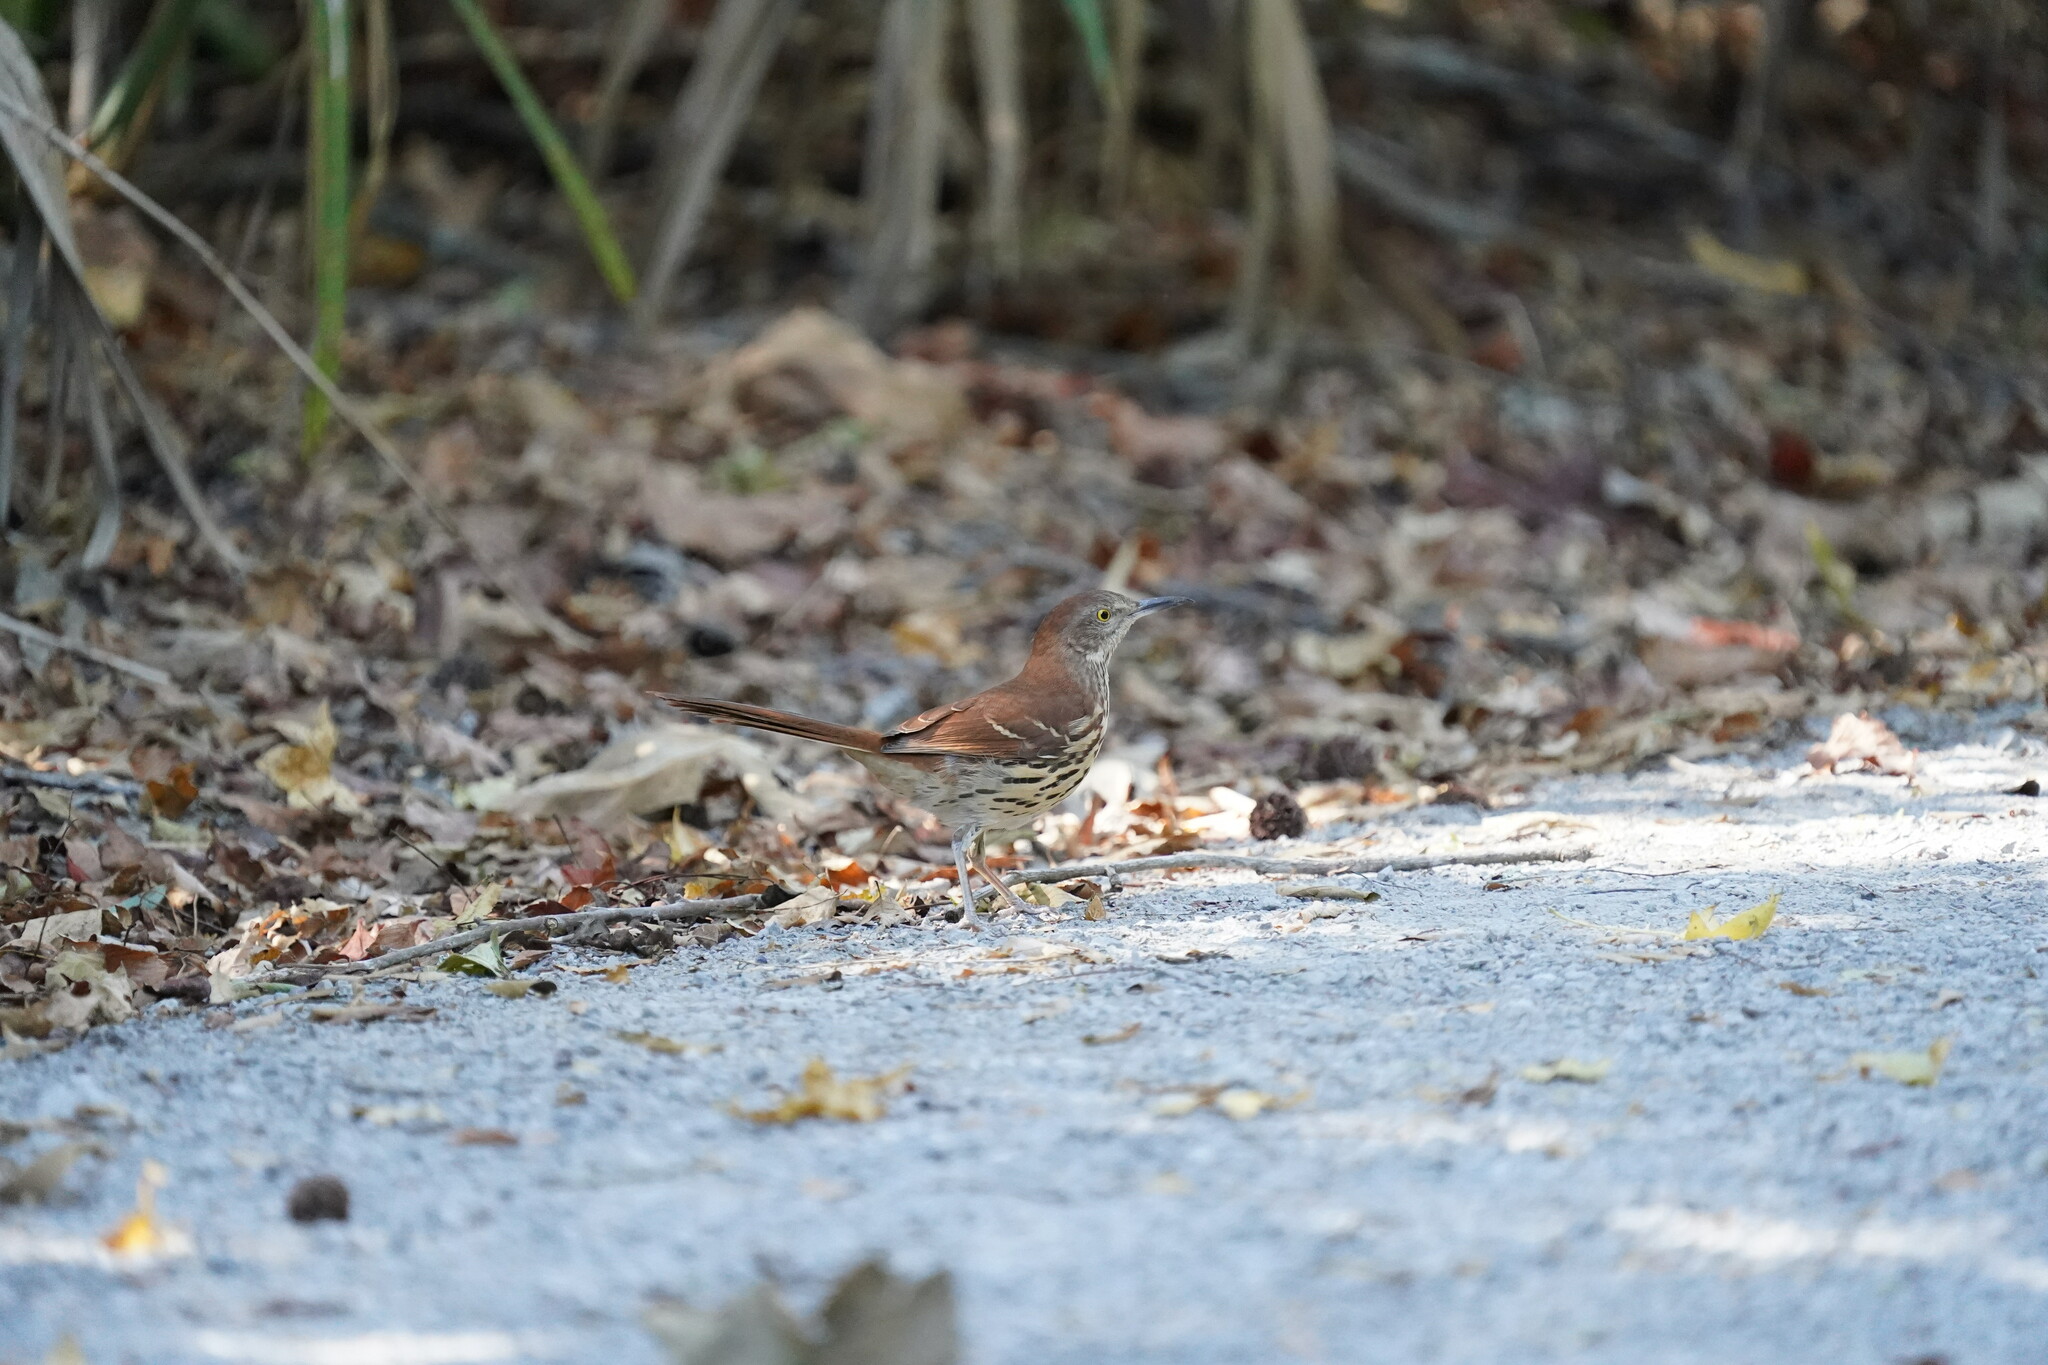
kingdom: Animalia
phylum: Chordata
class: Aves
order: Passeriformes
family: Mimidae
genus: Toxostoma
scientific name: Toxostoma rufum
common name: Brown thrasher
